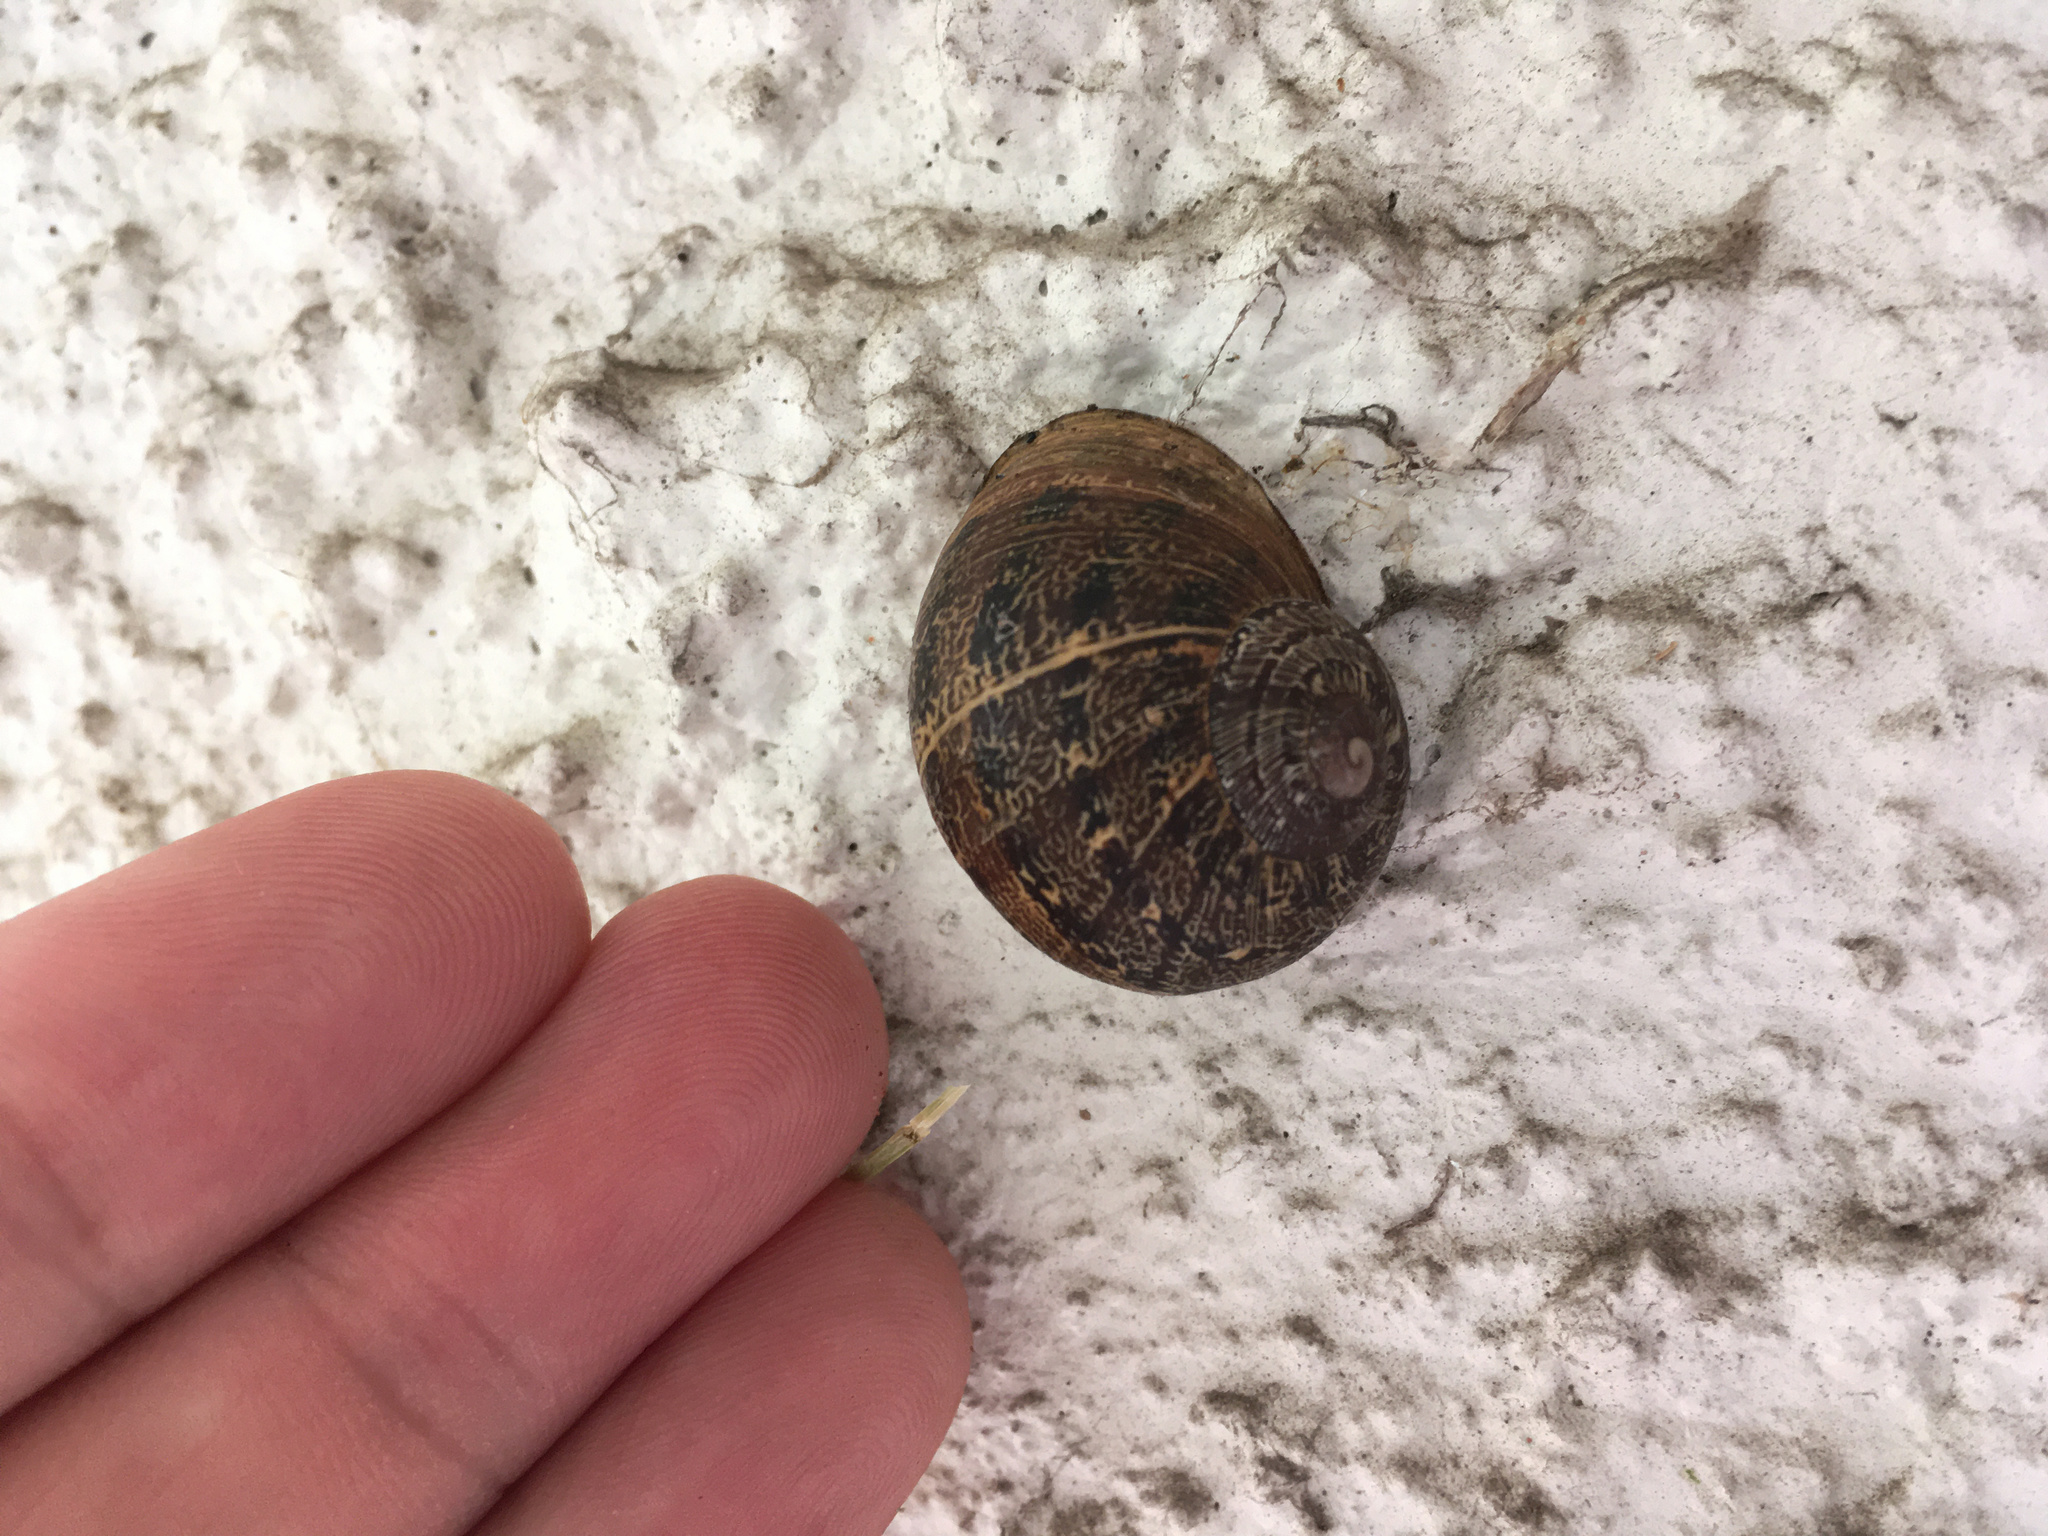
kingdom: Animalia
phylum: Mollusca
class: Gastropoda
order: Stylommatophora
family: Helicidae
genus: Cornu
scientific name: Cornu aspersum
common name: Brown garden snail
